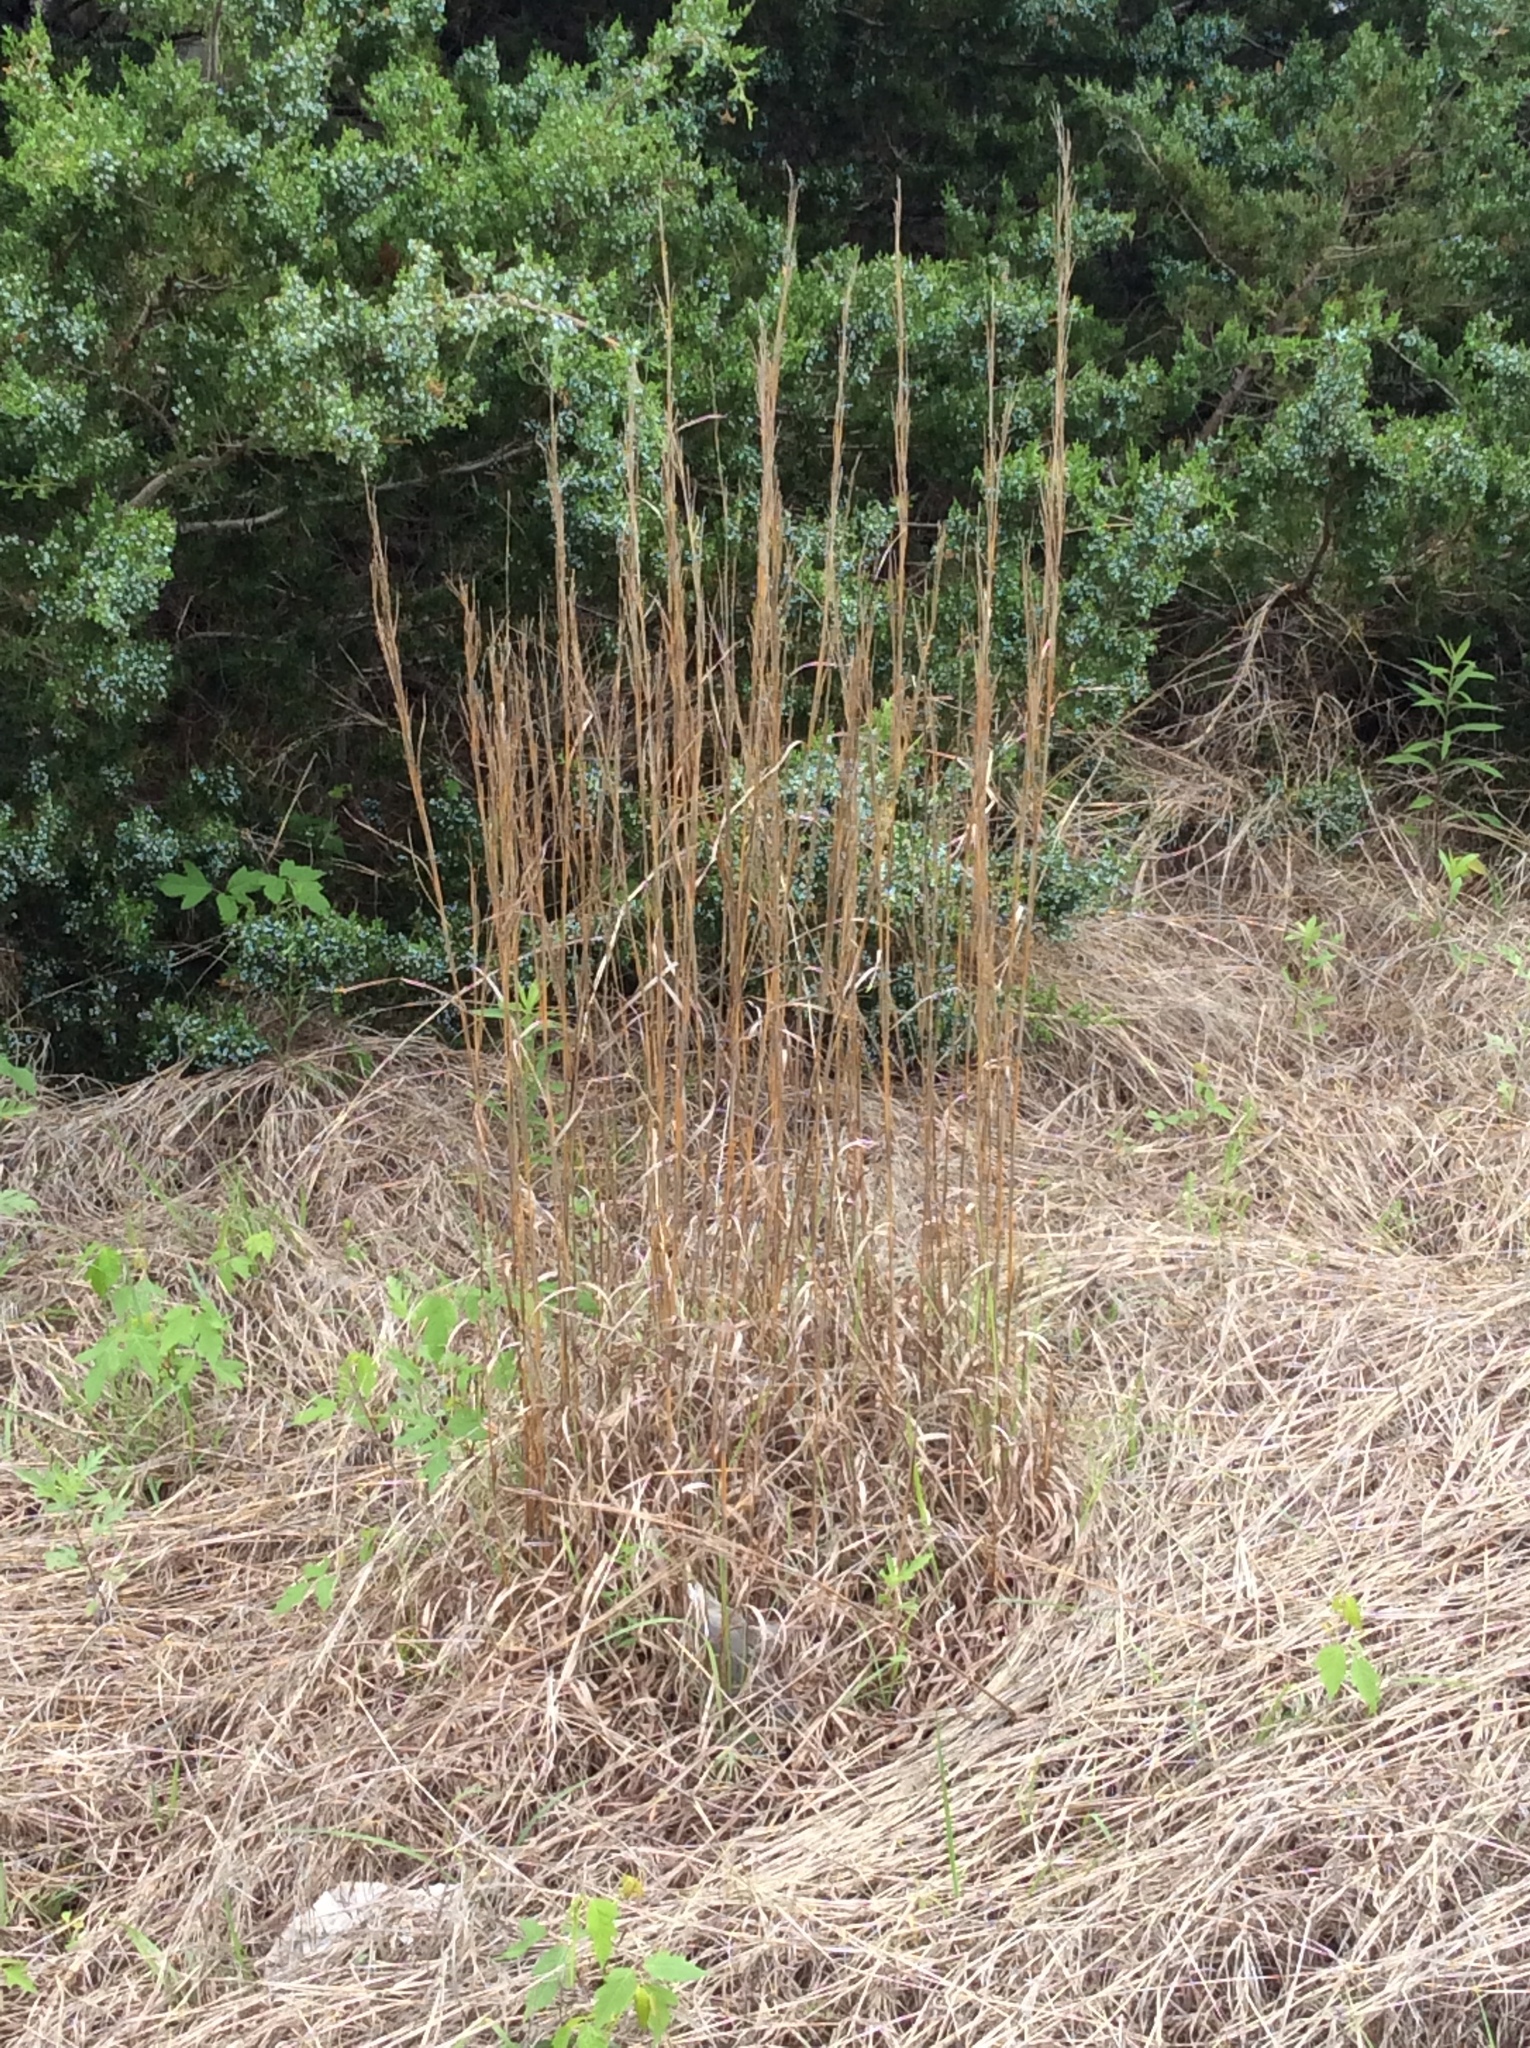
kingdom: Plantae
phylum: Tracheophyta
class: Liliopsida
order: Poales
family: Poaceae
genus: Schizachyrium
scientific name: Schizachyrium scoparium
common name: Little bluestem
